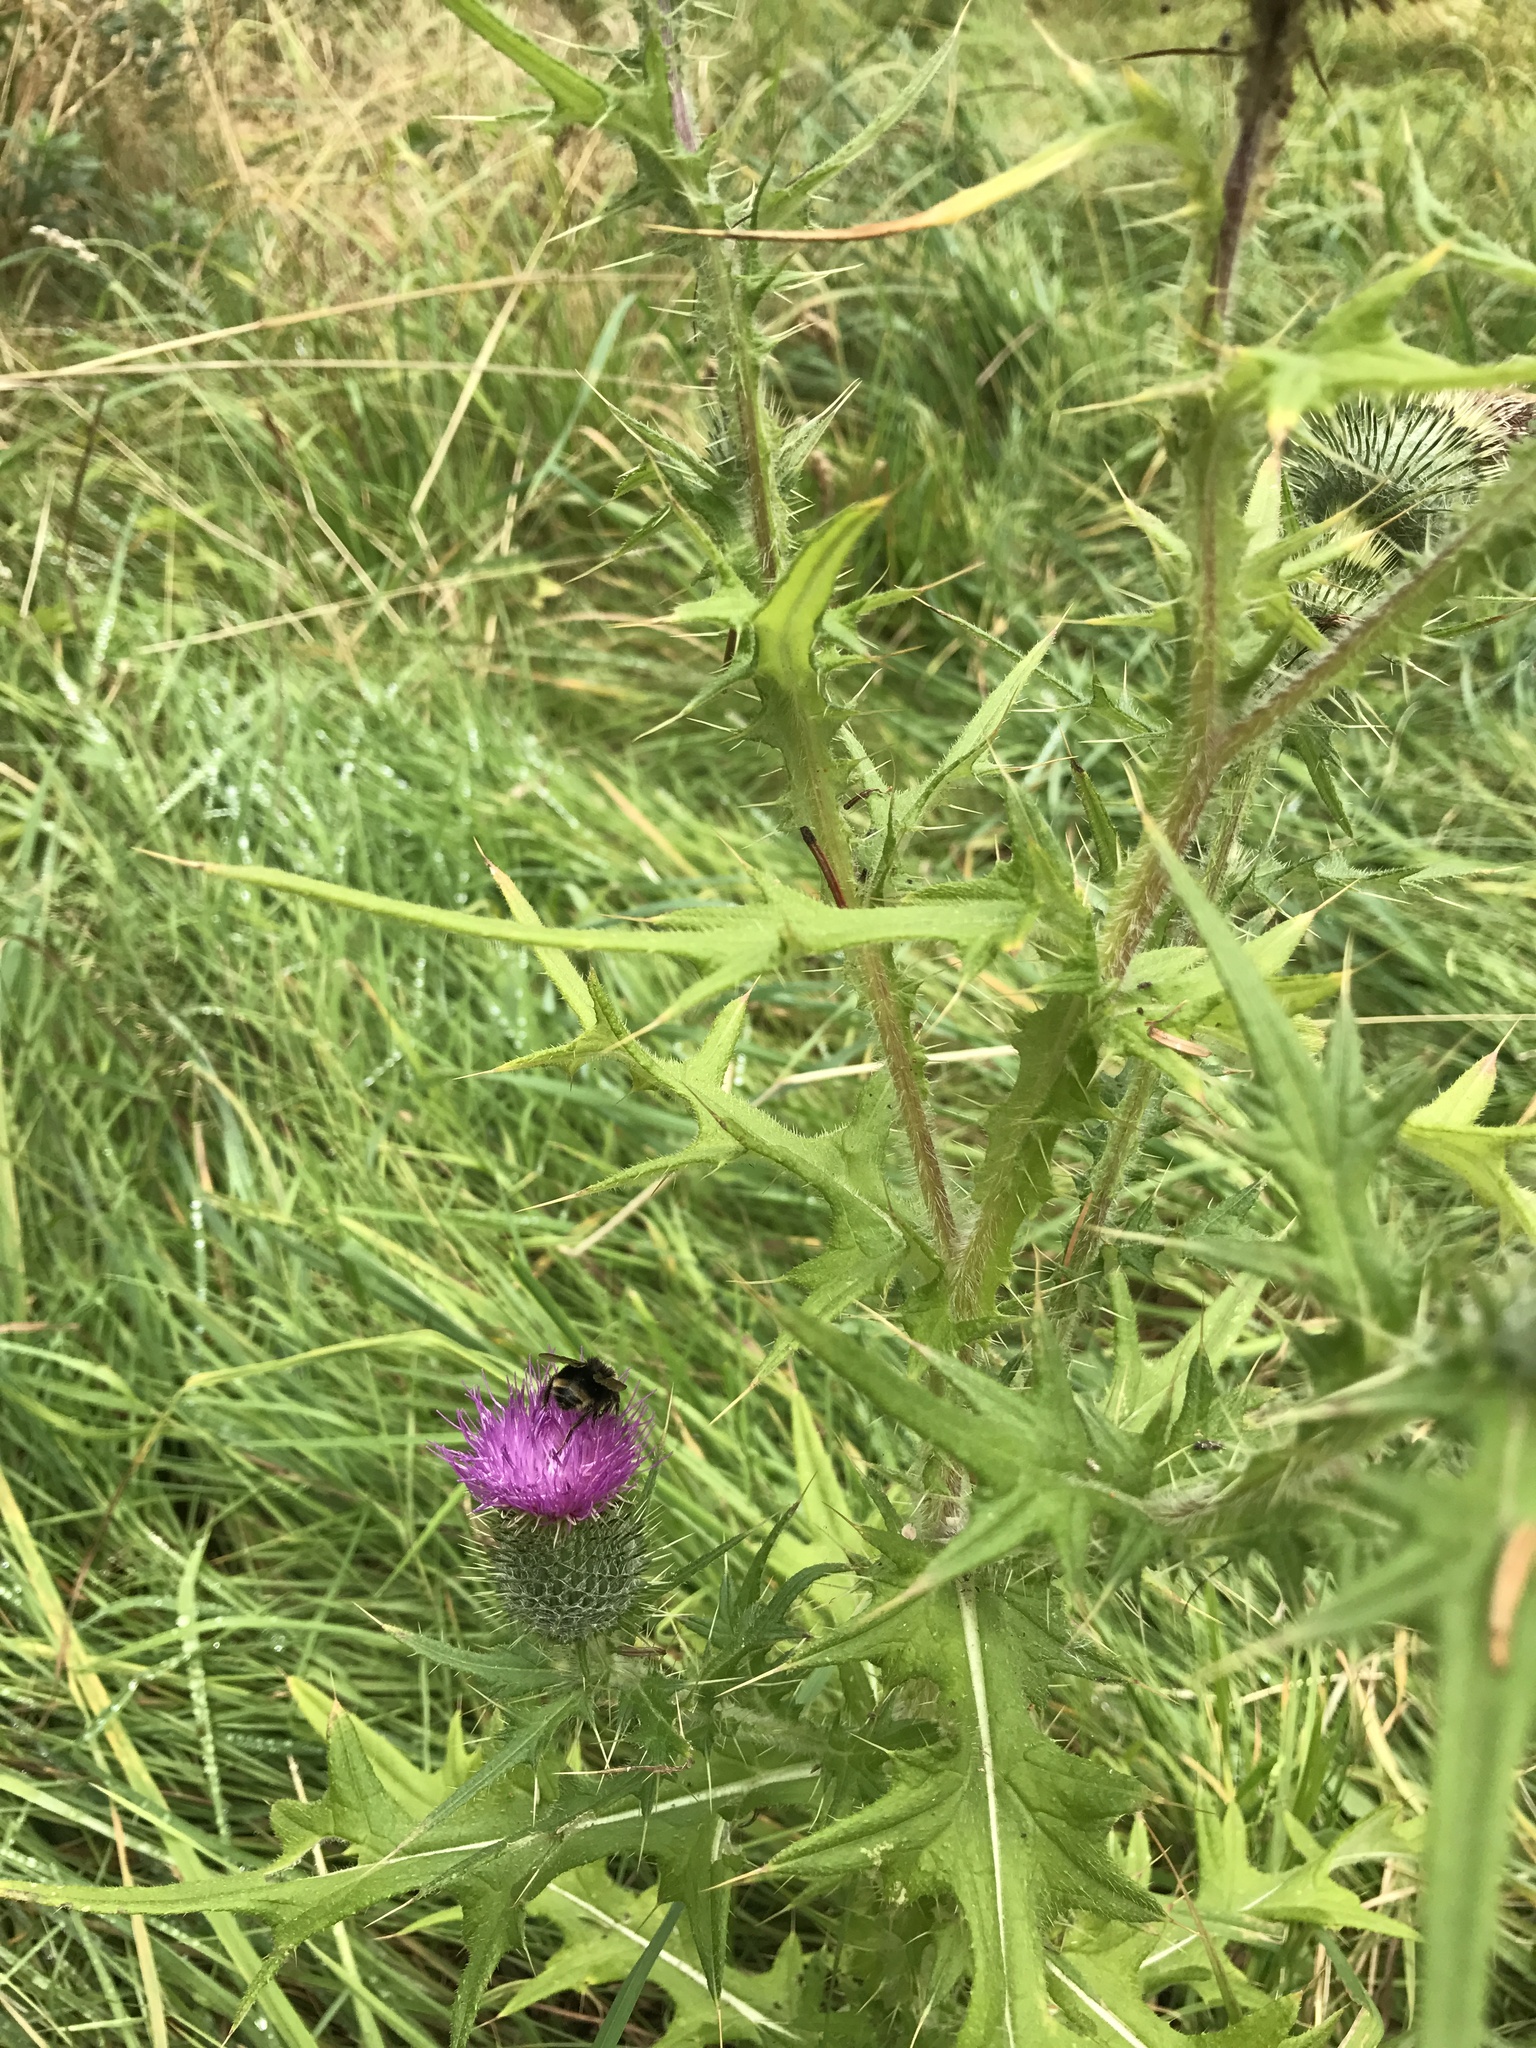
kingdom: Plantae
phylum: Tracheophyta
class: Magnoliopsida
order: Asterales
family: Asteraceae
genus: Cirsium
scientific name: Cirsium vulgare
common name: Bull thistle
